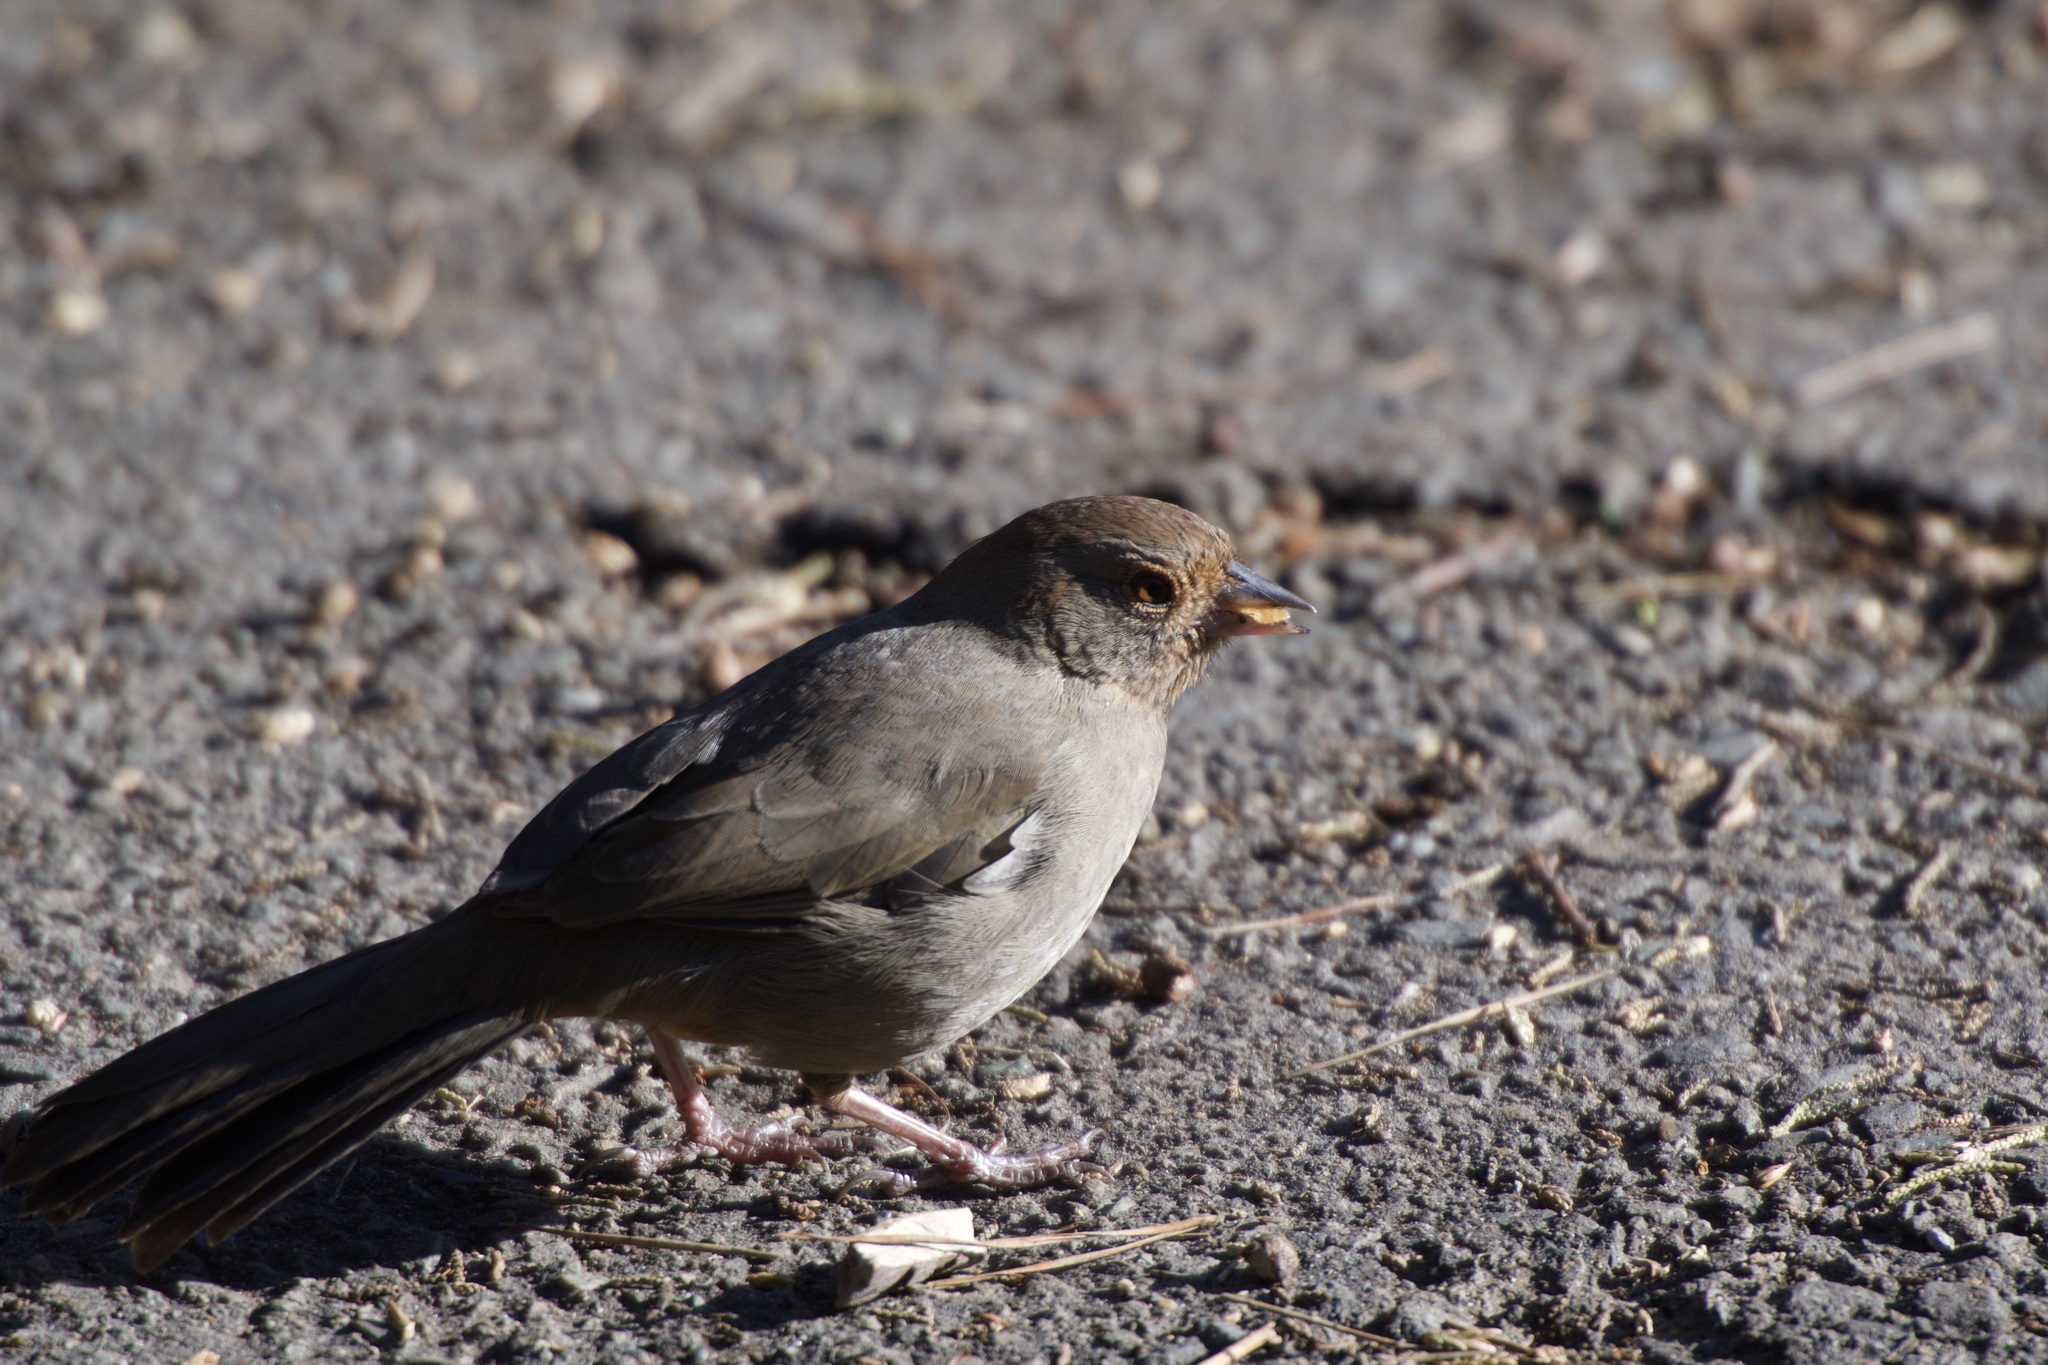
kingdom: Animalia
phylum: Chordata
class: Aves
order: Passeriformes
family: Passerellidae
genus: Melozone
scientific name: Melozone crissalis
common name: California towhee
